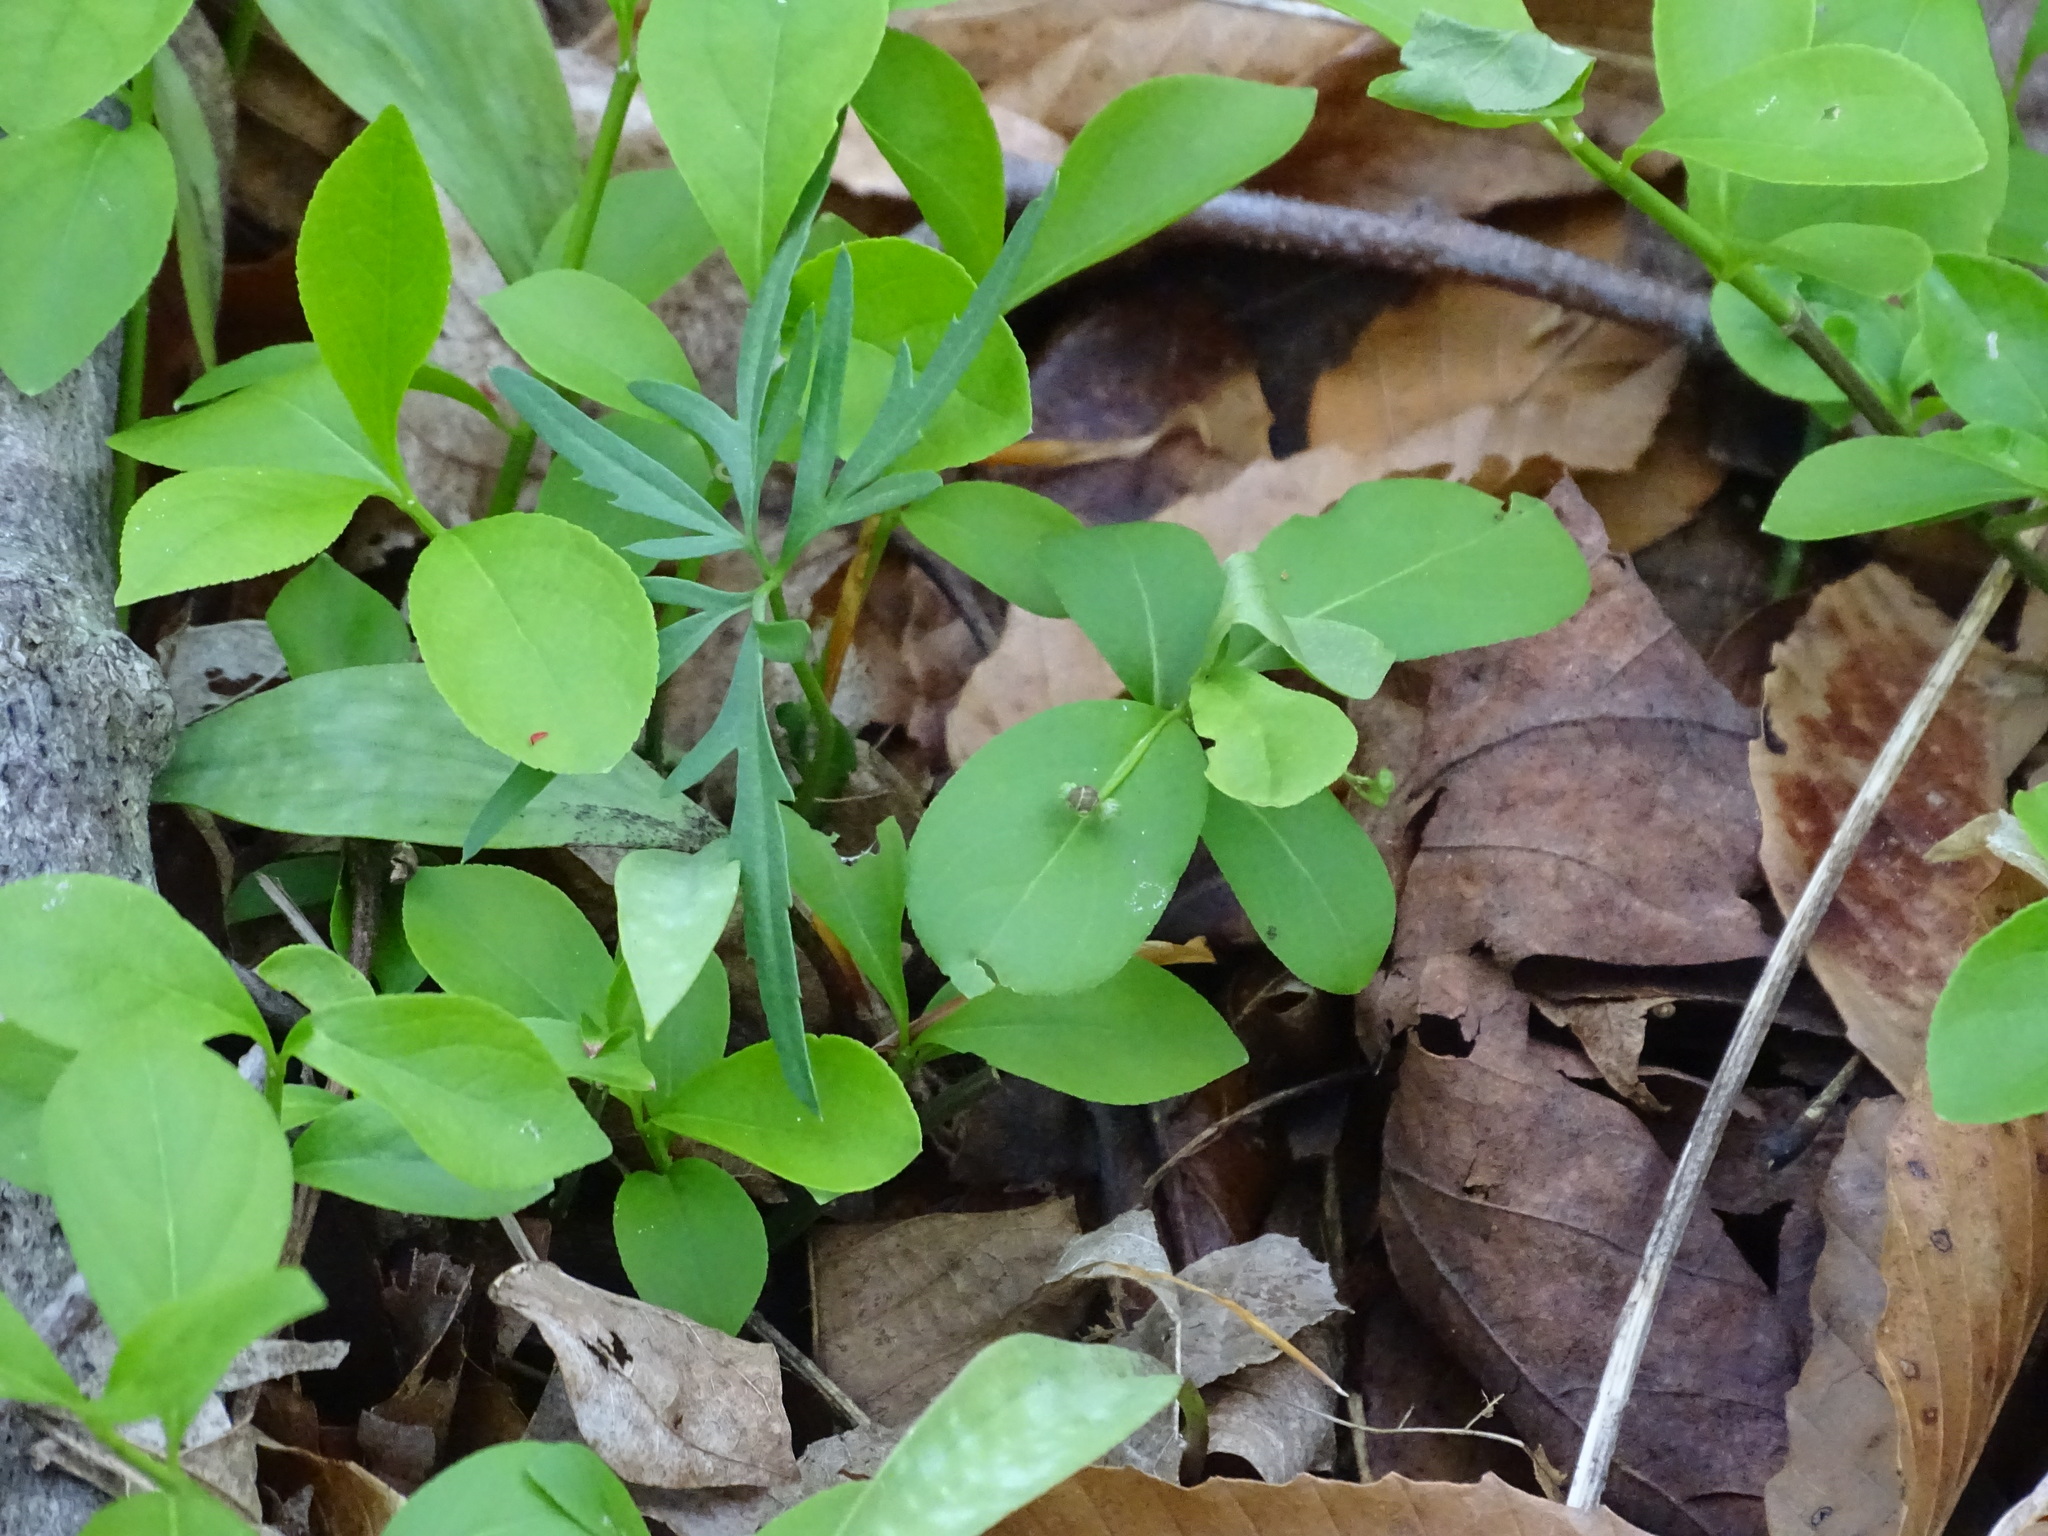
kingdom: Plantae
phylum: Tracheophyta
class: Magnoliopsida
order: Celastrales
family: Celastraceae
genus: Euonymus
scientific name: Euonymus obovatus
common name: Running strawberry-bush
